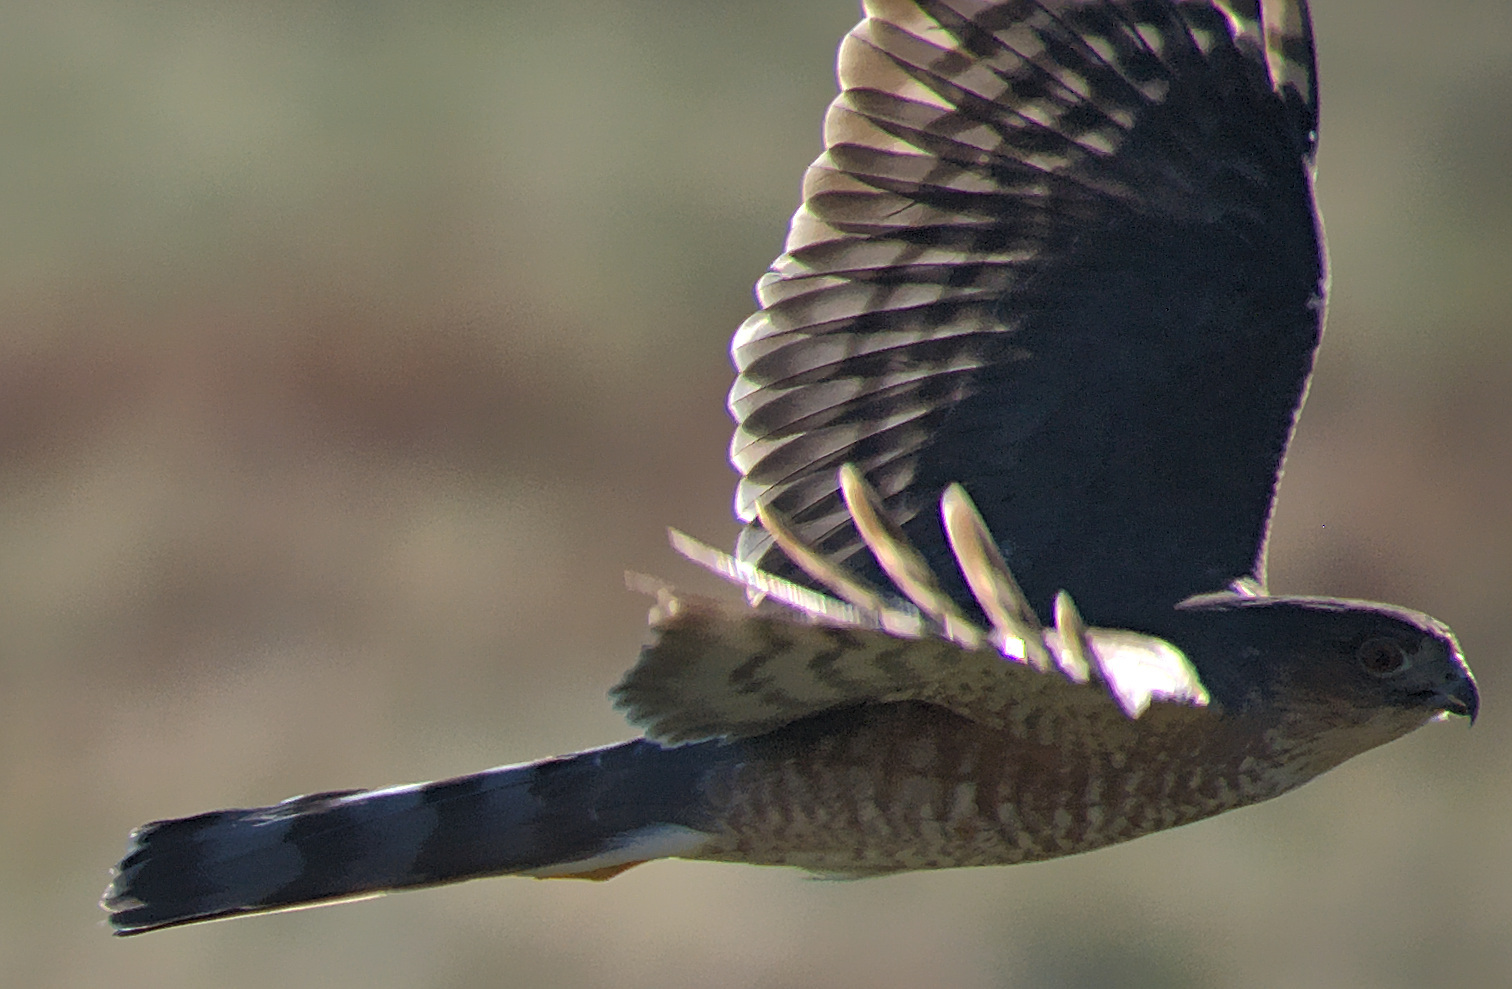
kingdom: Animalia
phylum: Chordata
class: Aves
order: Accipitriformes
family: Accipitridae
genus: Accipiter
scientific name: Accipiter striatus
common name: Sharp-shinned hawk
